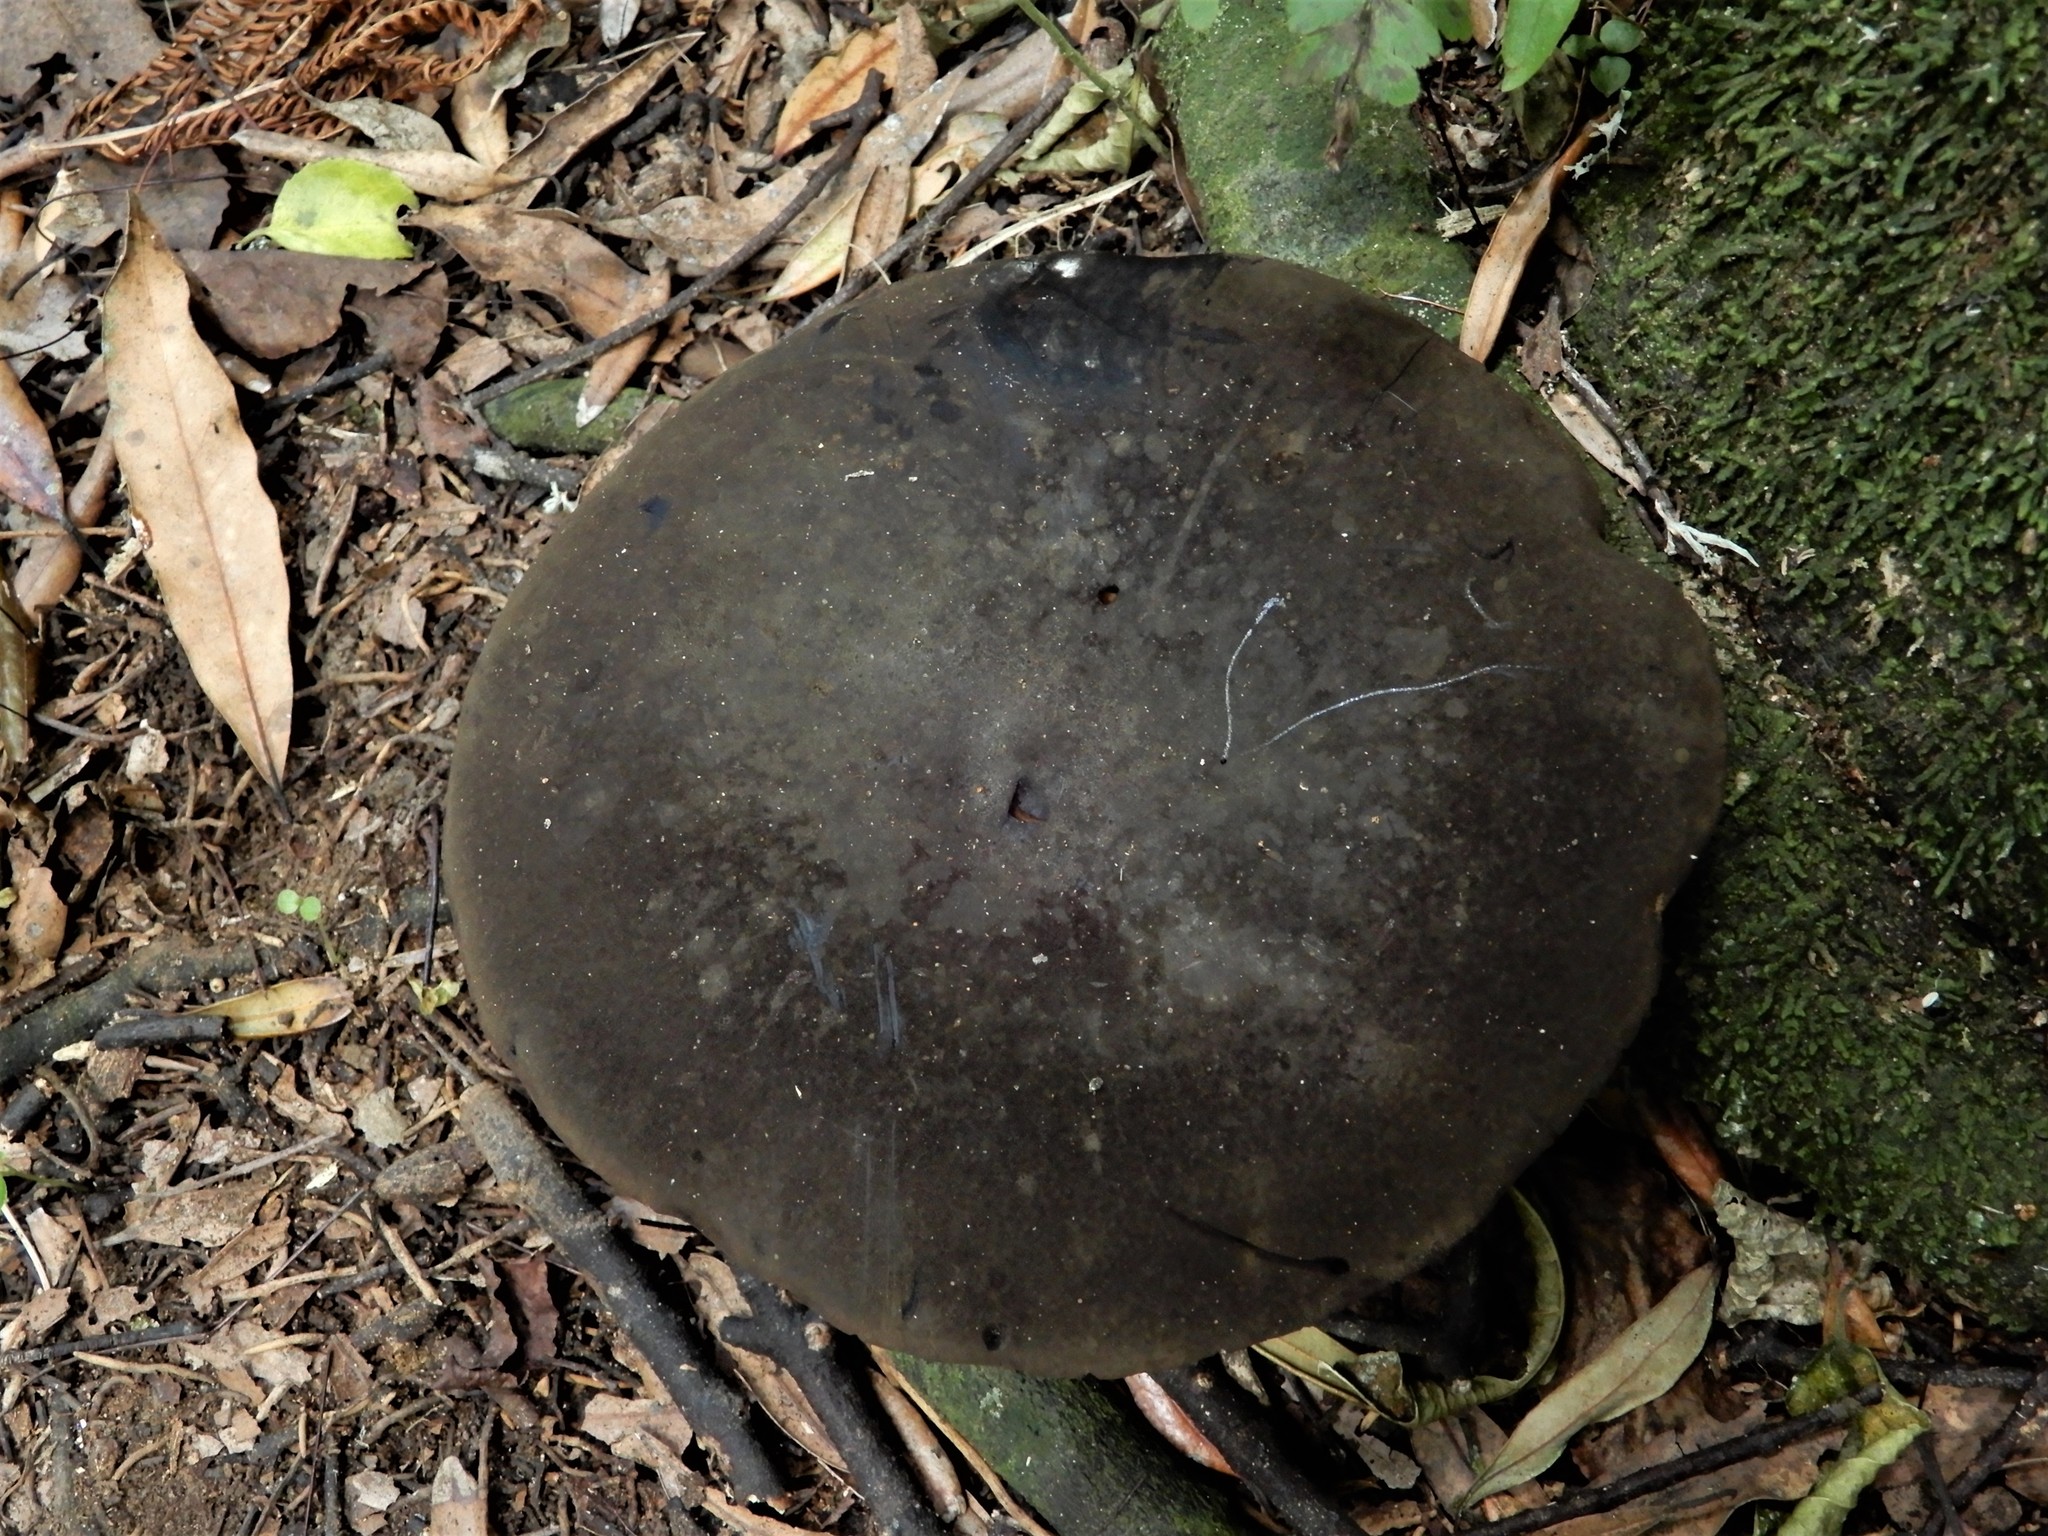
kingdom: Fungi
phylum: Basidiomycota
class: Agaricomycetes
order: Boletales
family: Boletinellaceae
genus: Phlebopus
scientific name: Phlebopus marginatus
